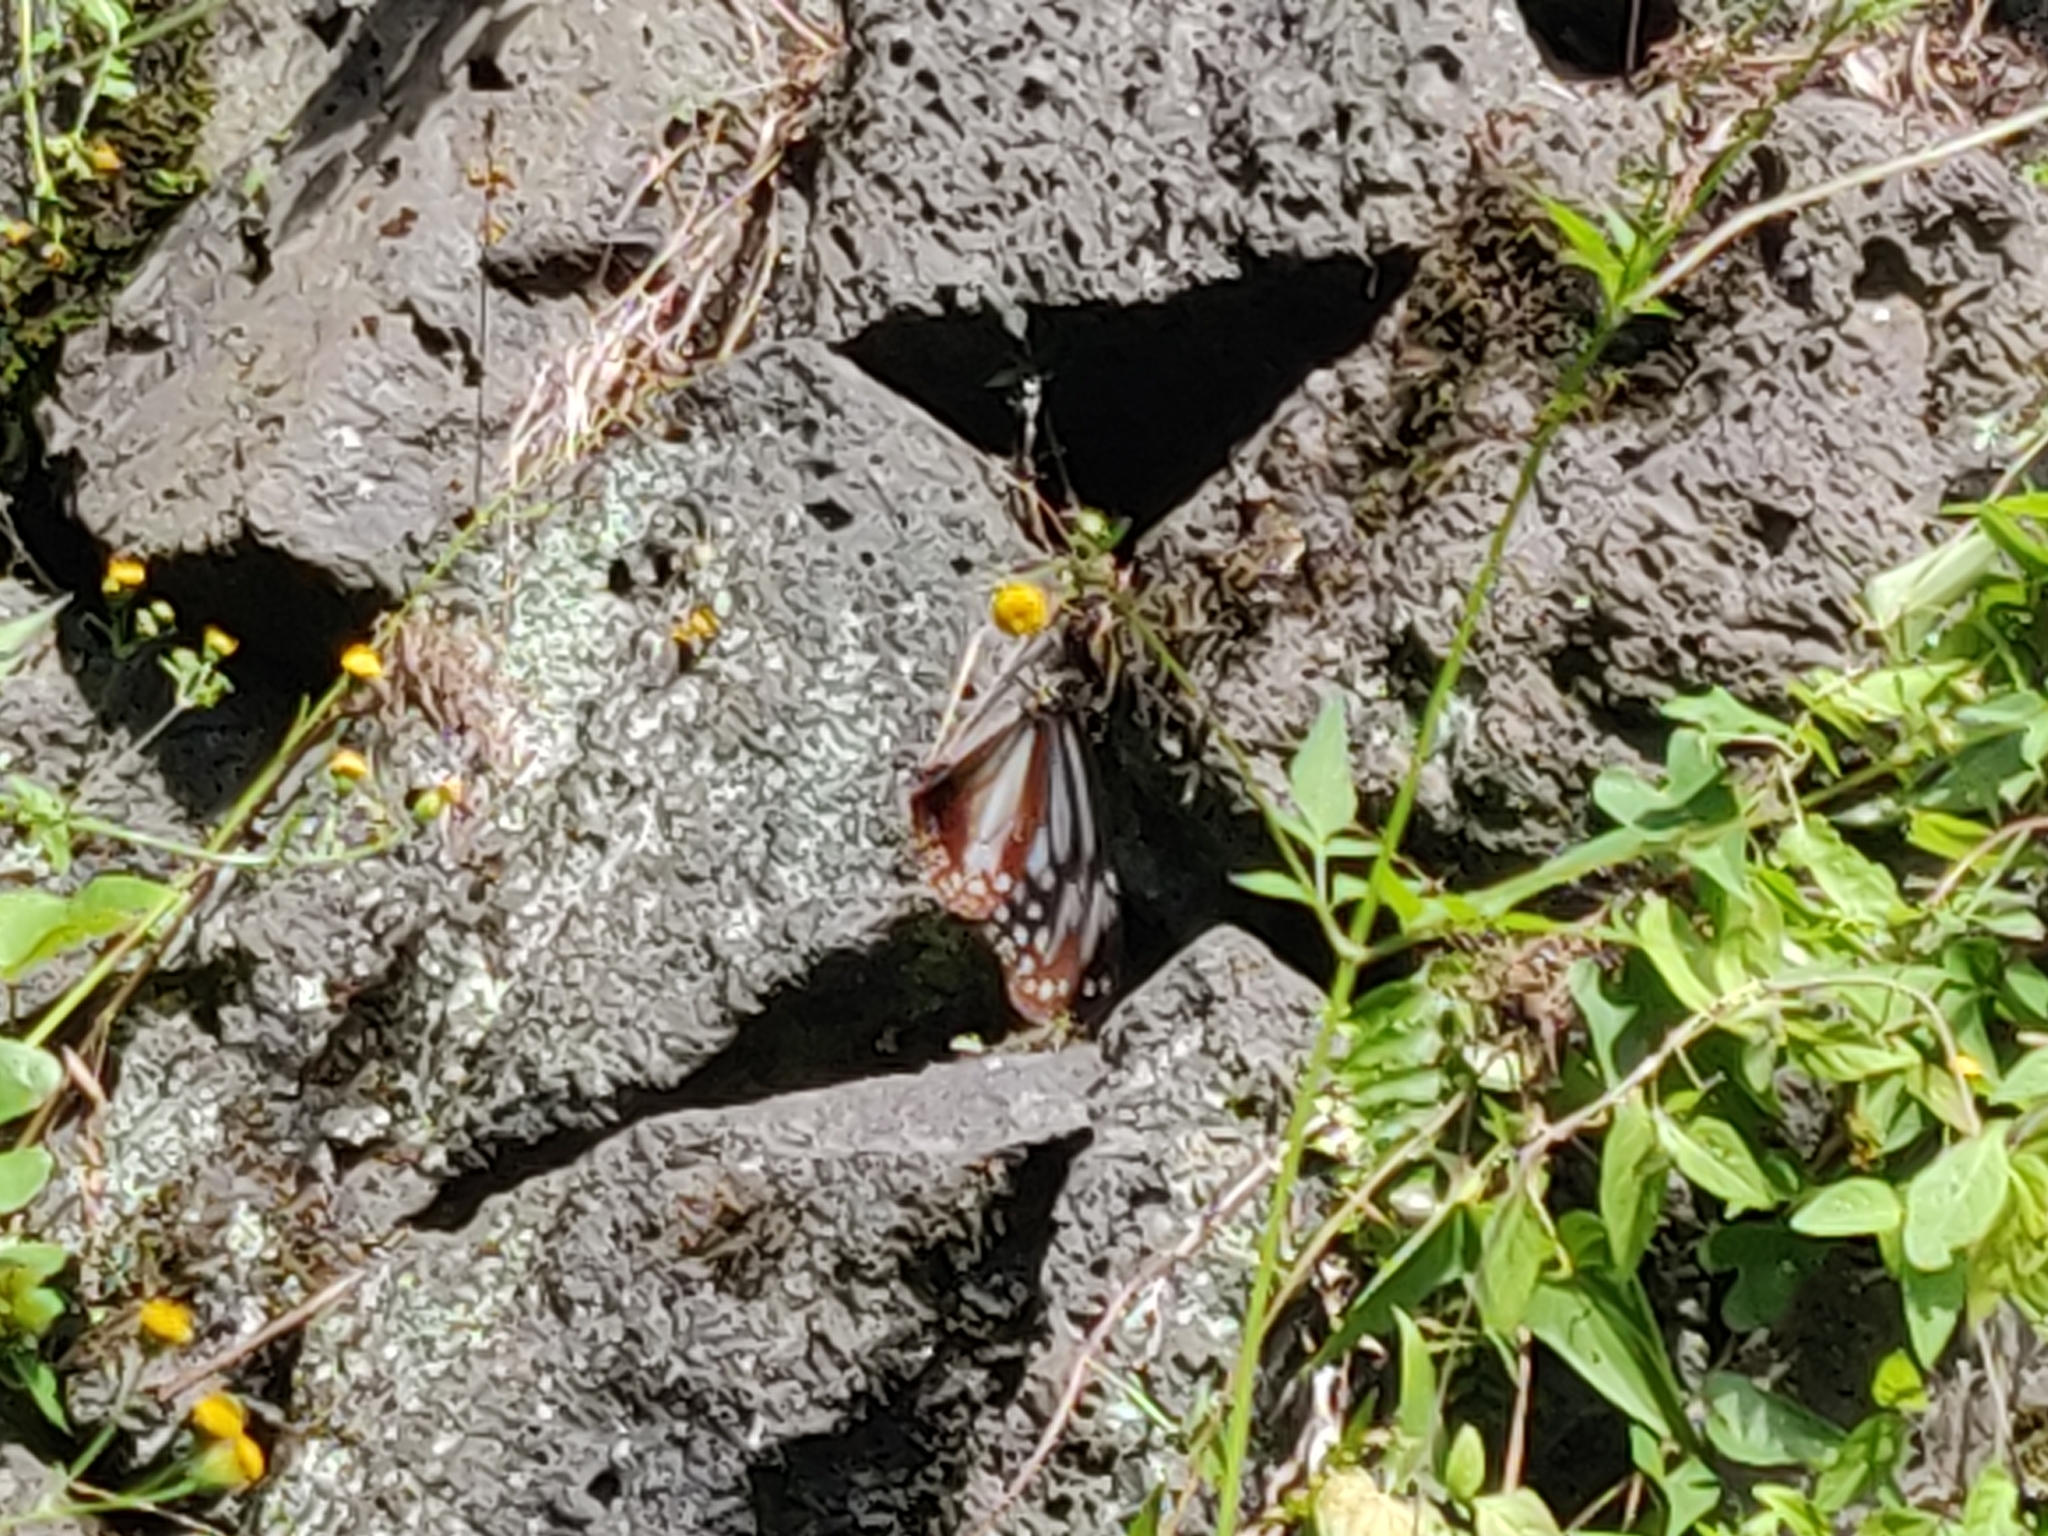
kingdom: Animalia
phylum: Arthropoda
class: Insecta
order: Lepidoptera
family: Nymphalidae
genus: Parantica
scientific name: Parantica sita
